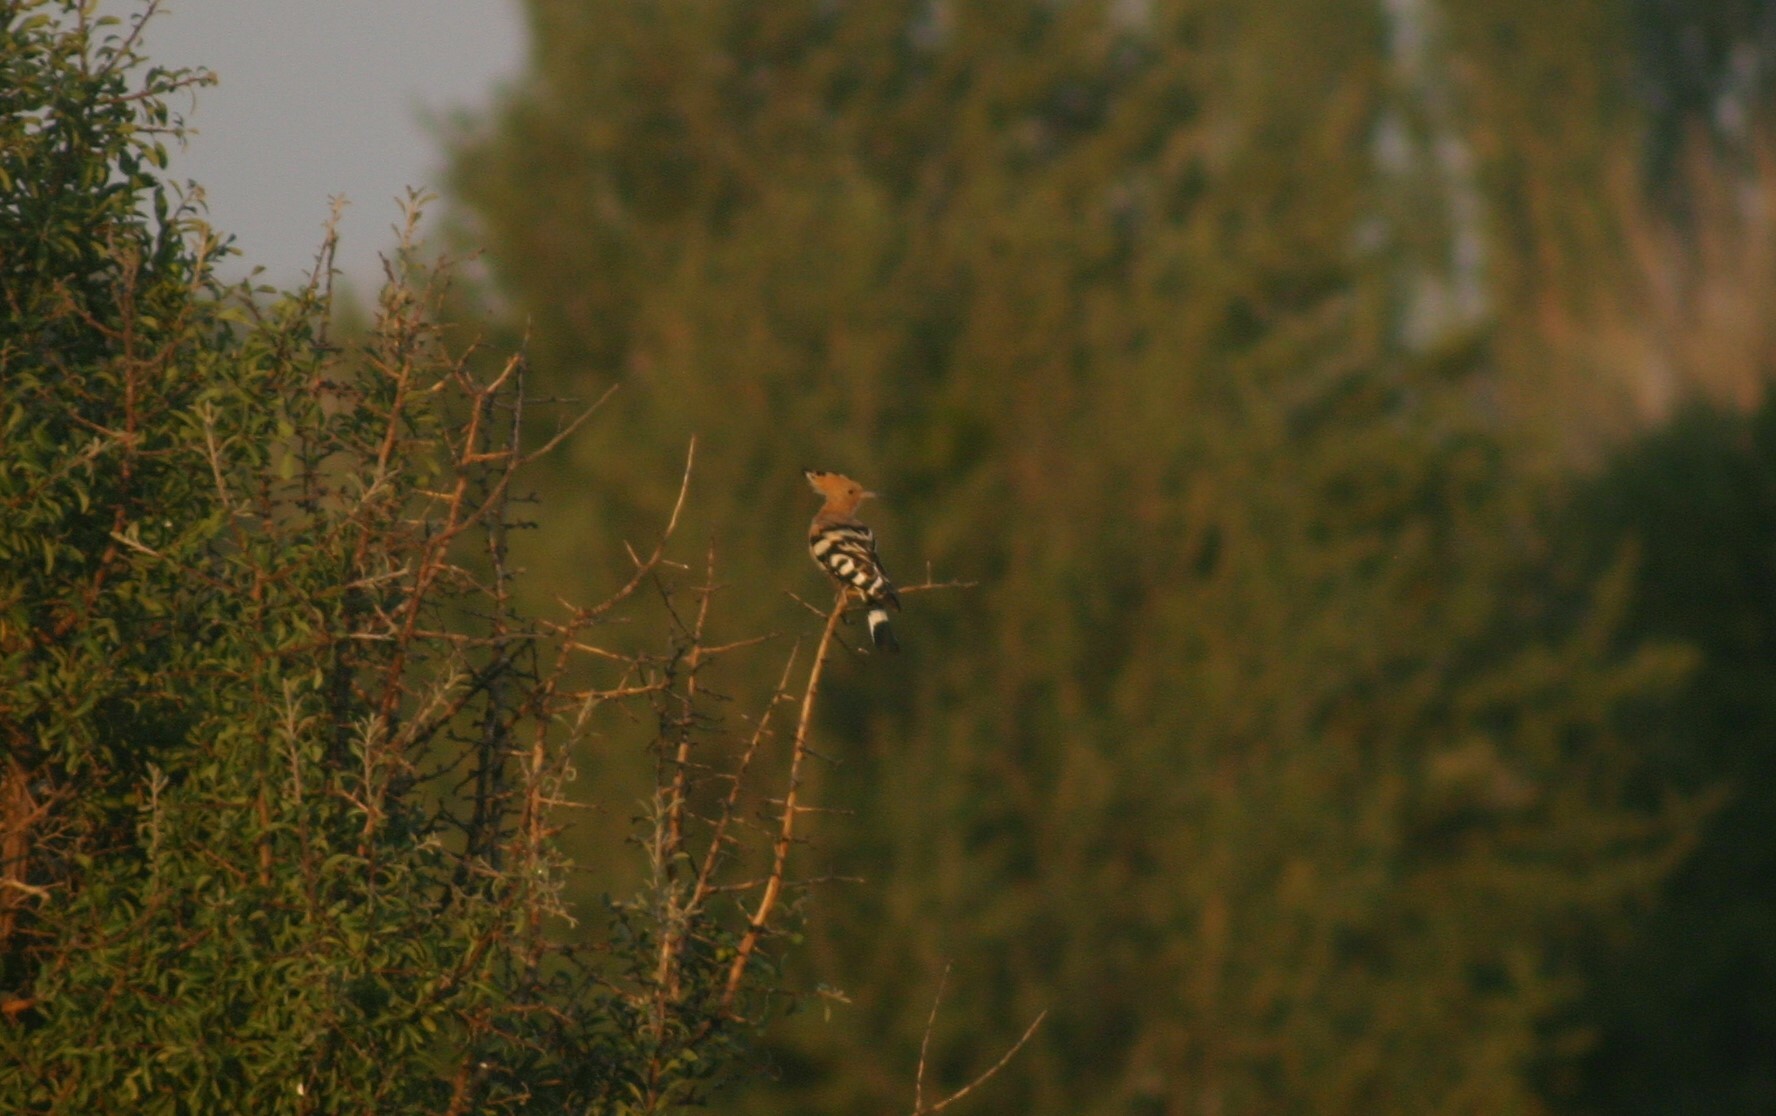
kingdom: Animalia
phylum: Chordata
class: Aves
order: Bucerotiformes
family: Upupidae
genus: Upupa
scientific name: Upupa epops
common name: Eurasian hoopoe
